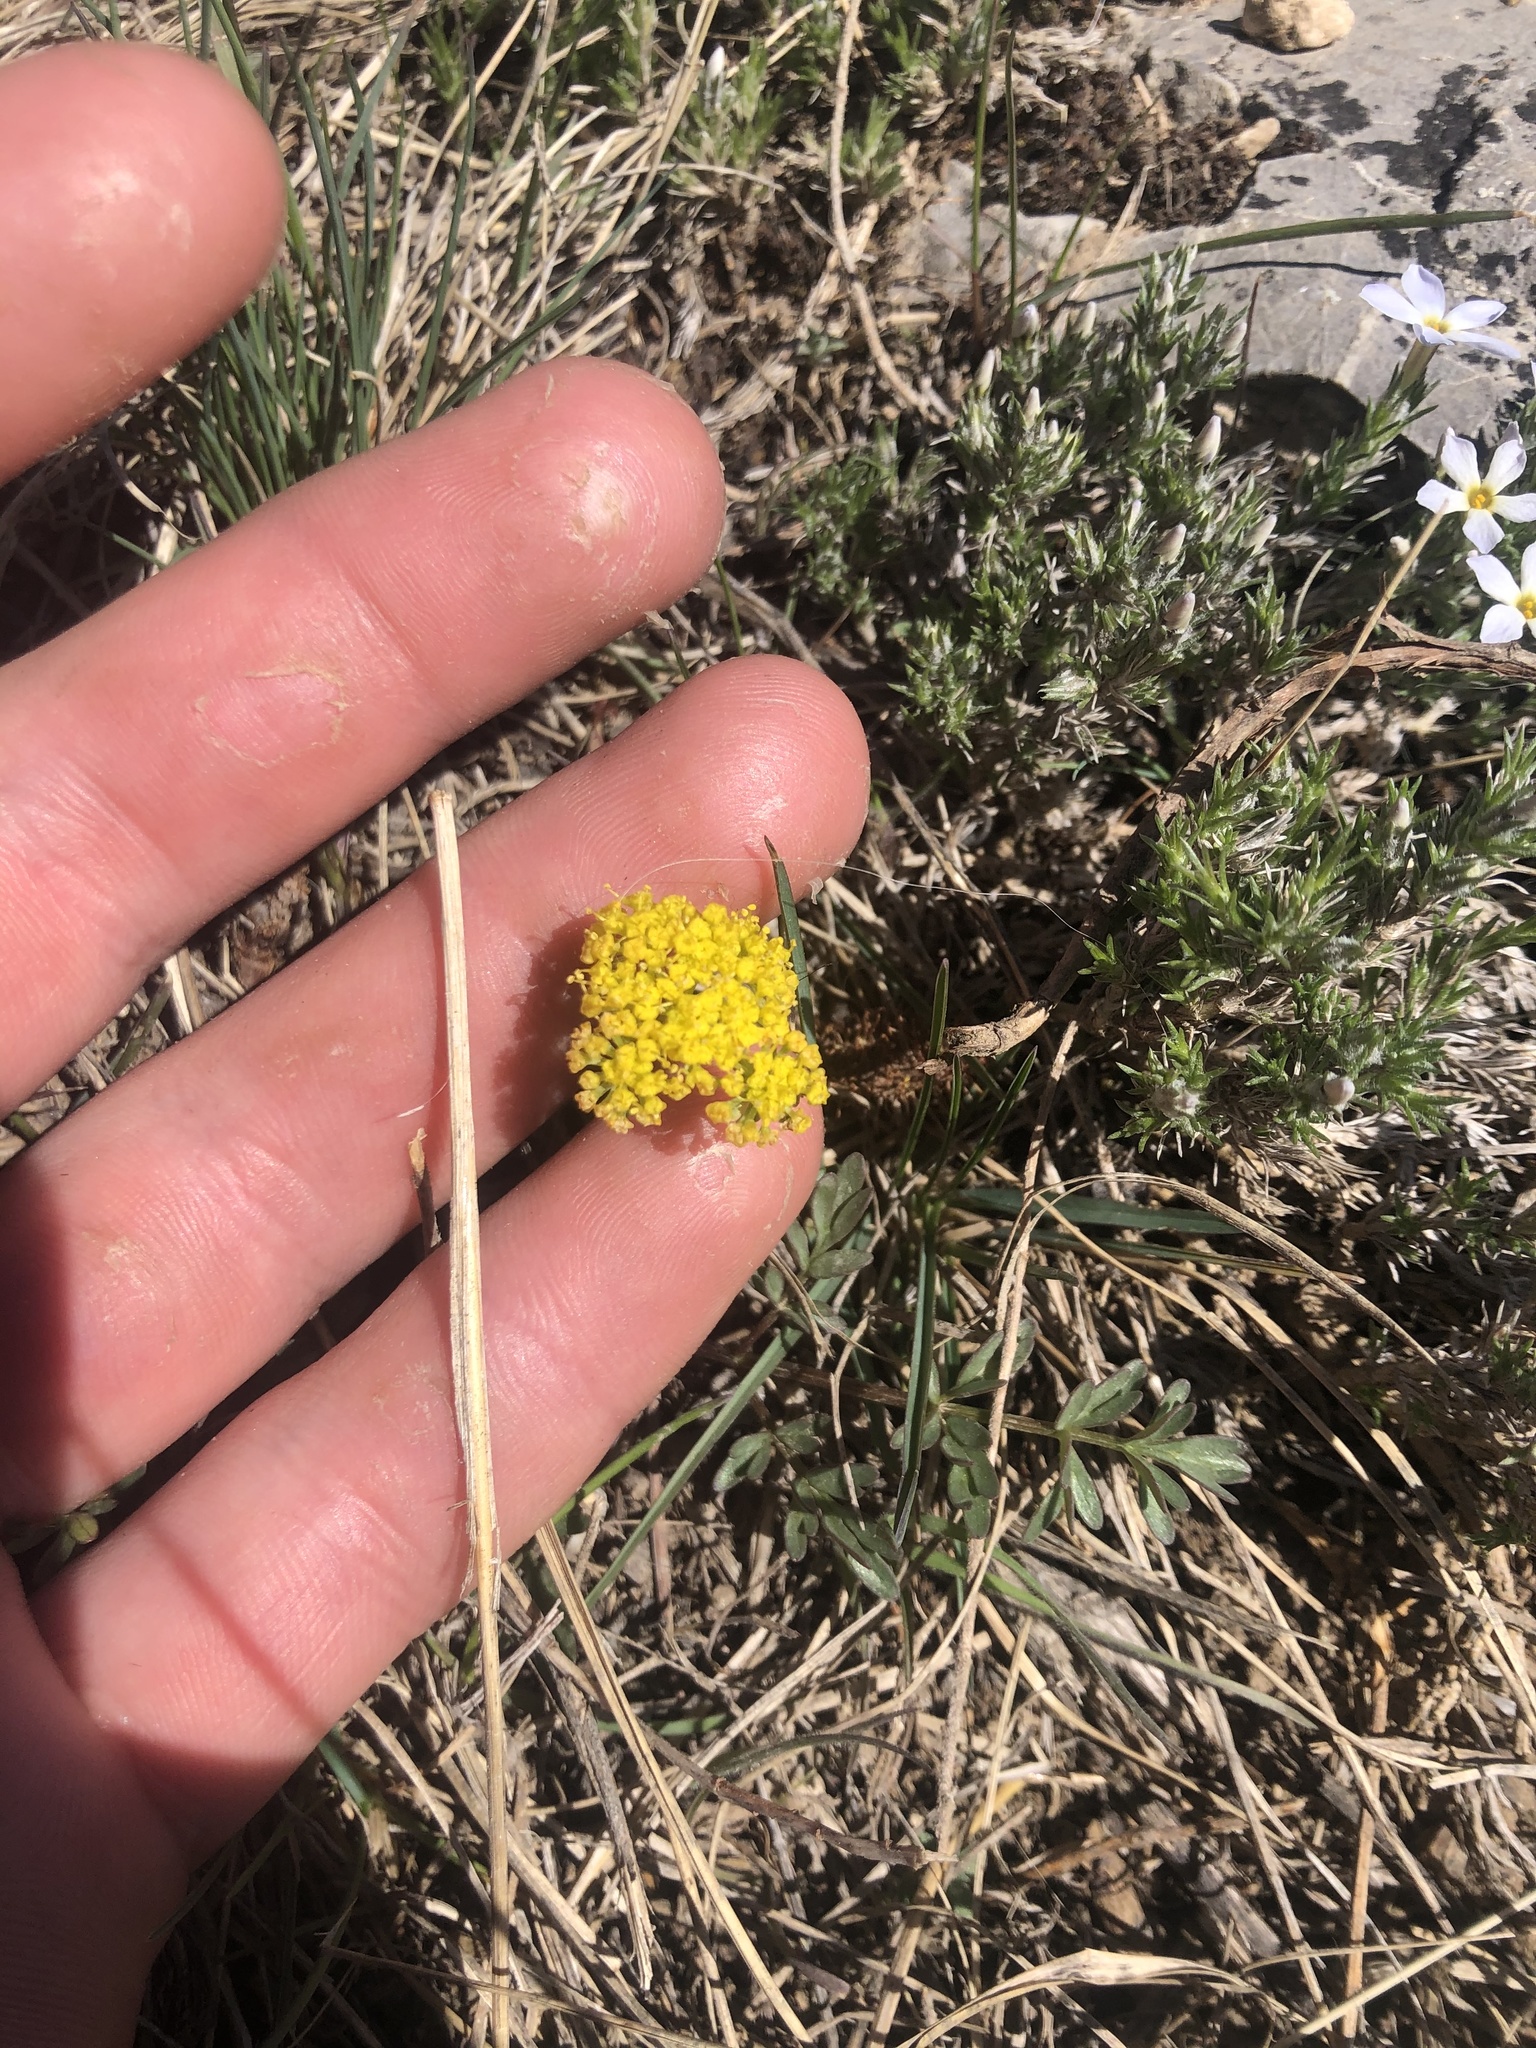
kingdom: Plantae
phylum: Tracheophyta
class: Magnoliopsida
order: Apiales
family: Apiaceae
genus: Lomatium
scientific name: Lomatium cous
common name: Biscuit-root
